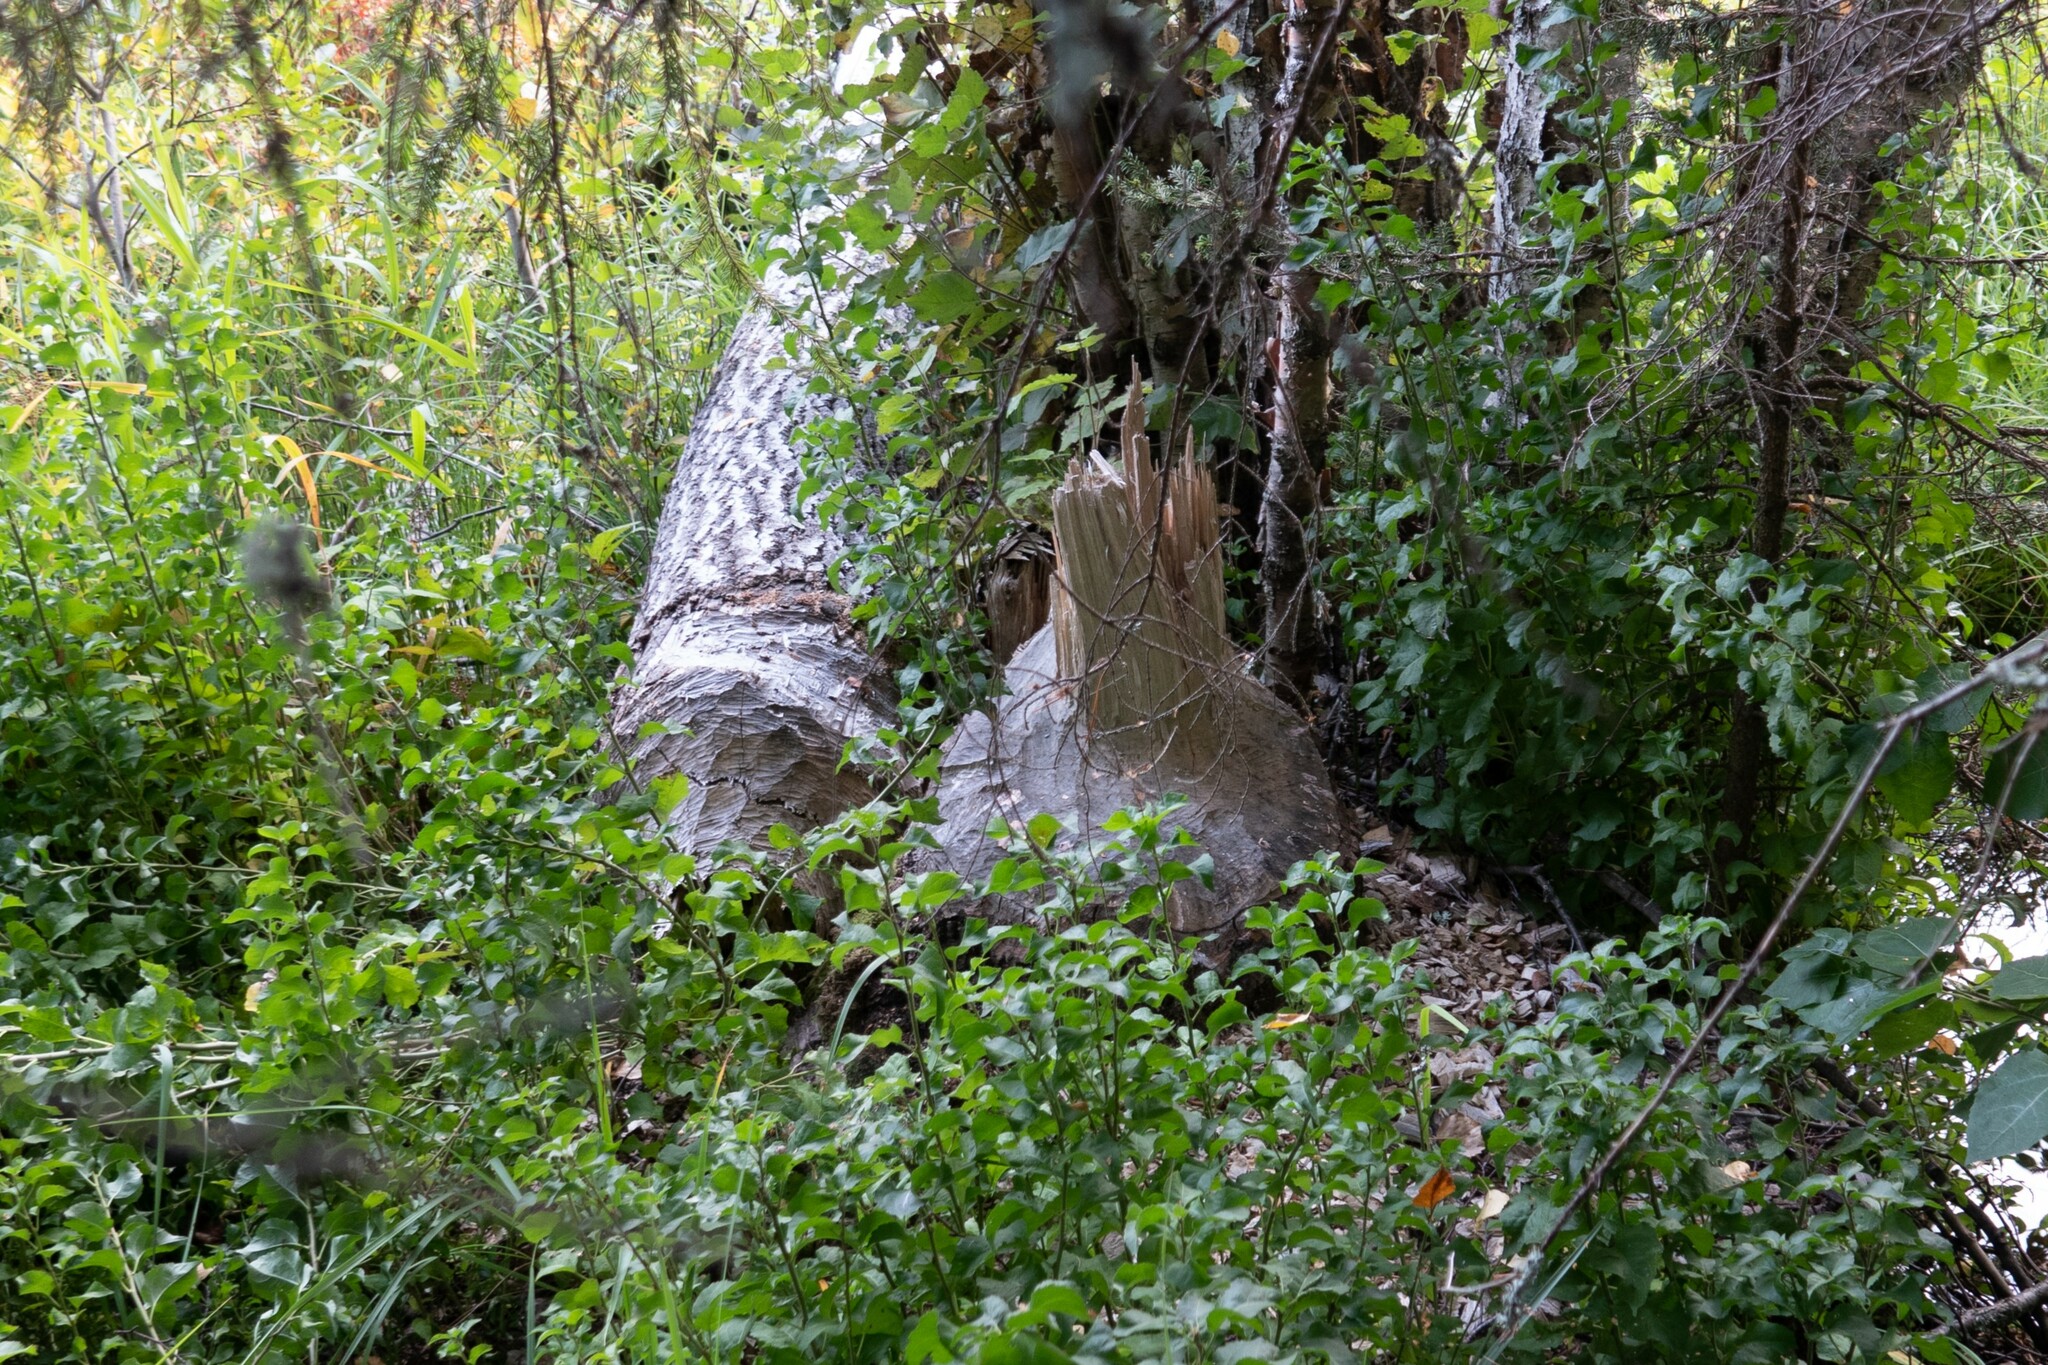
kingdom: Animalia
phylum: Chordata
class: Mammalia
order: Rodentia
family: Castoridae
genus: Castor
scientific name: Castor fiber
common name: Eurasian beaver
